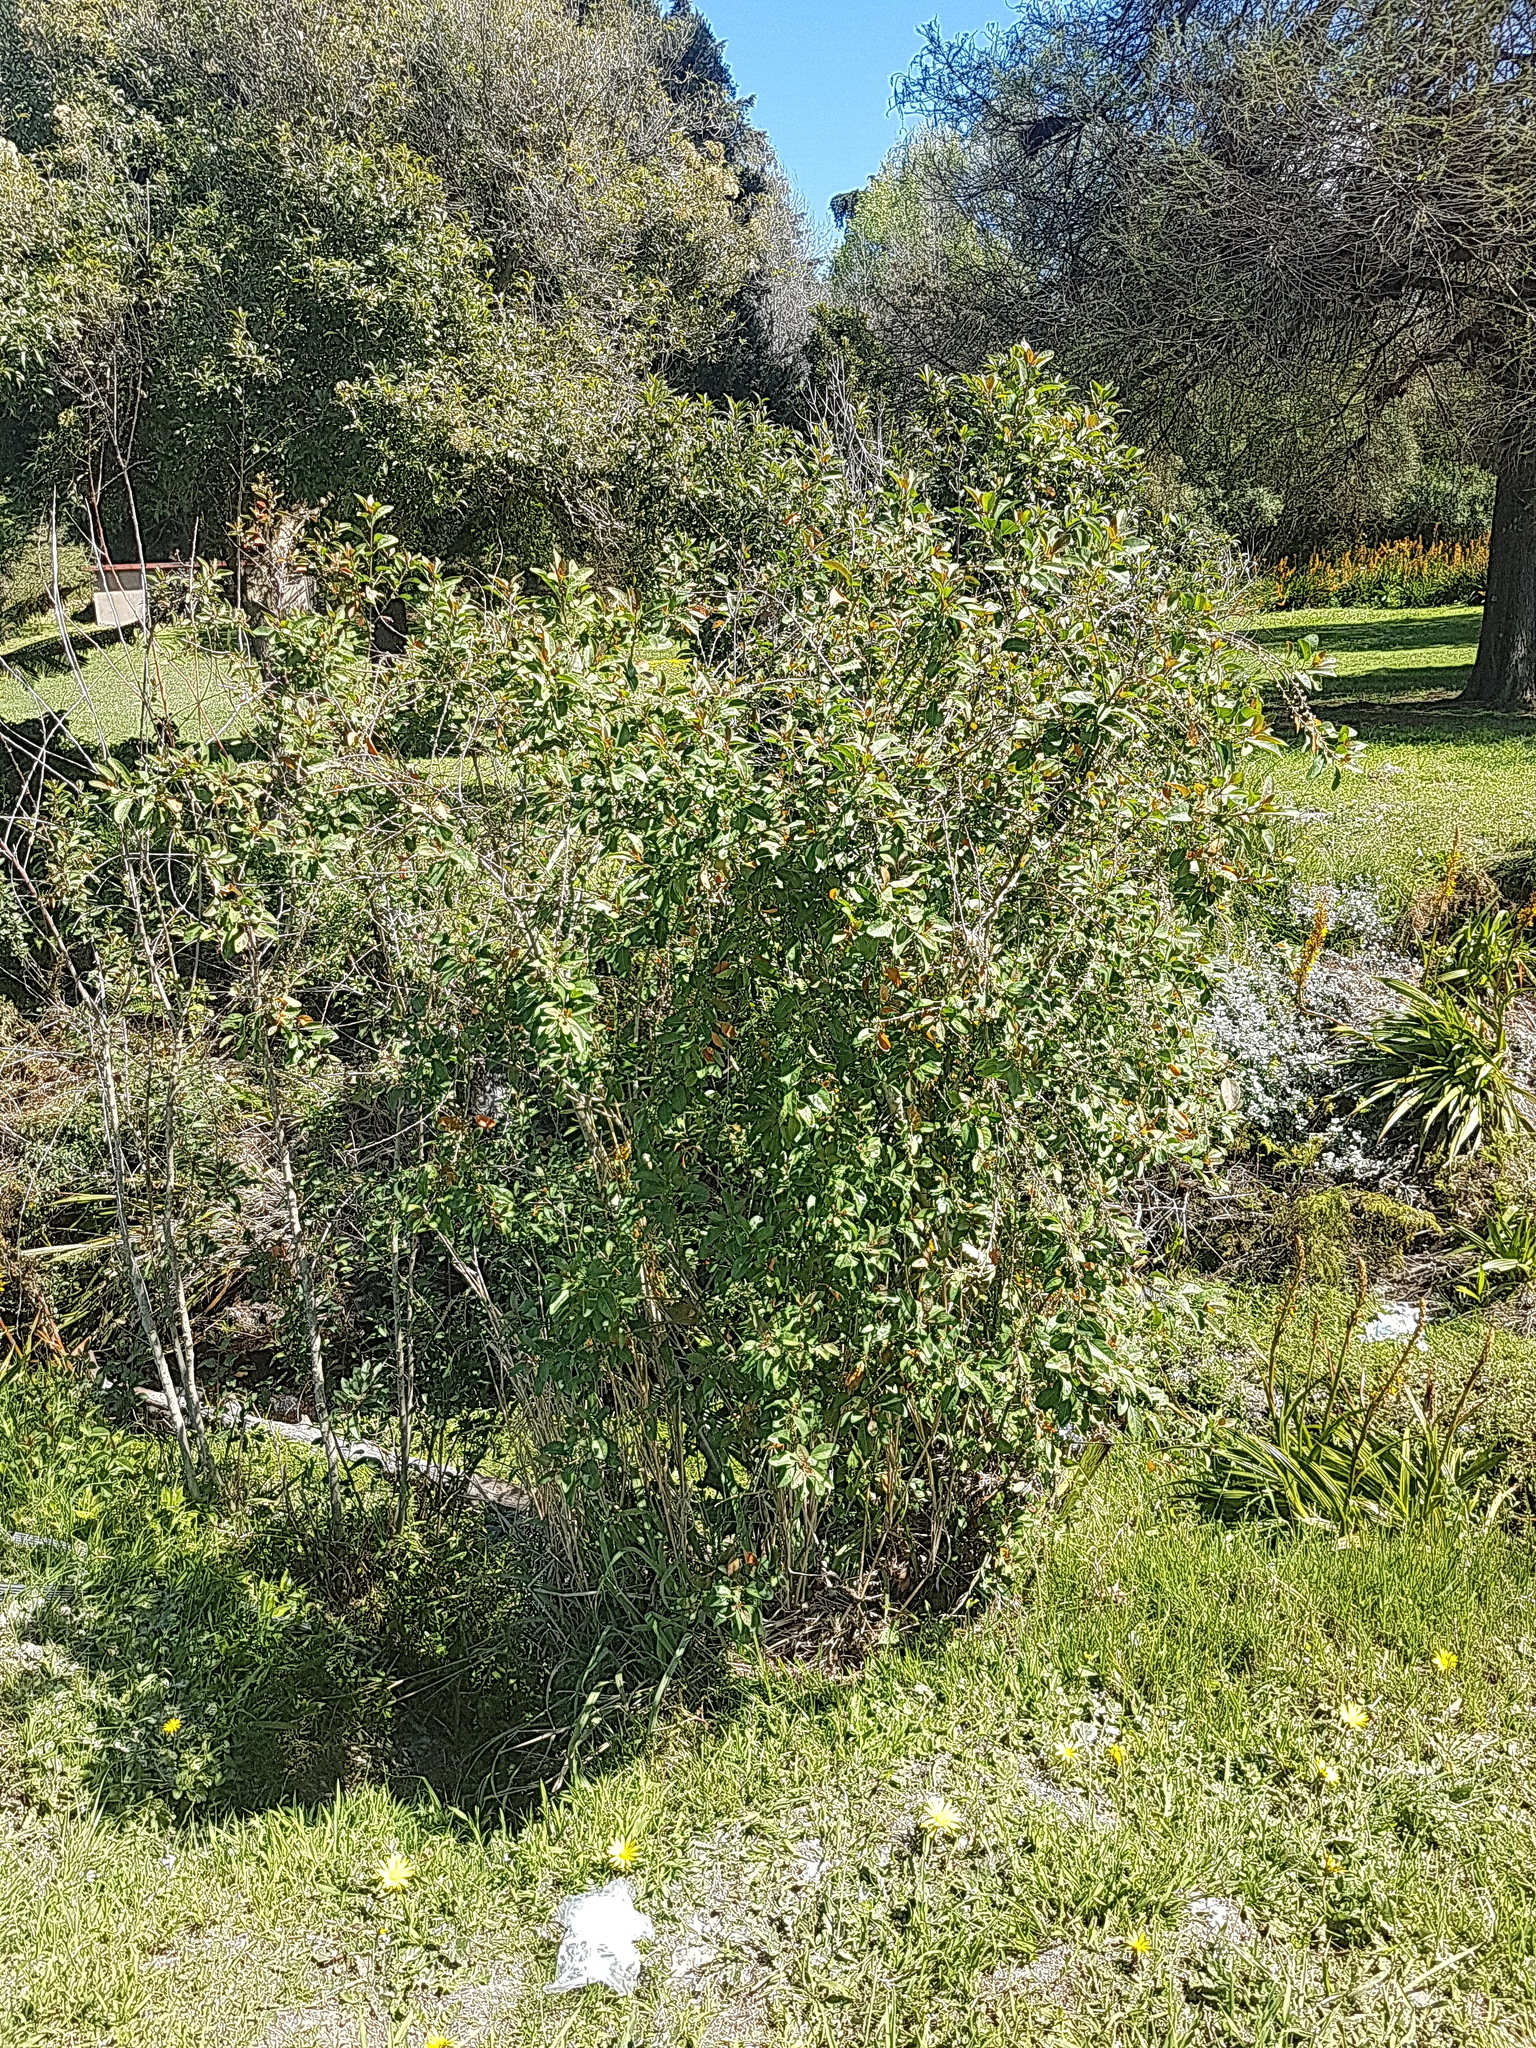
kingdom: Plantae
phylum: Tracheophyta
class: Magnoliopsida
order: Malpighiales
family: Peraceae
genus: Clutia
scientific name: Clutia pulchella
